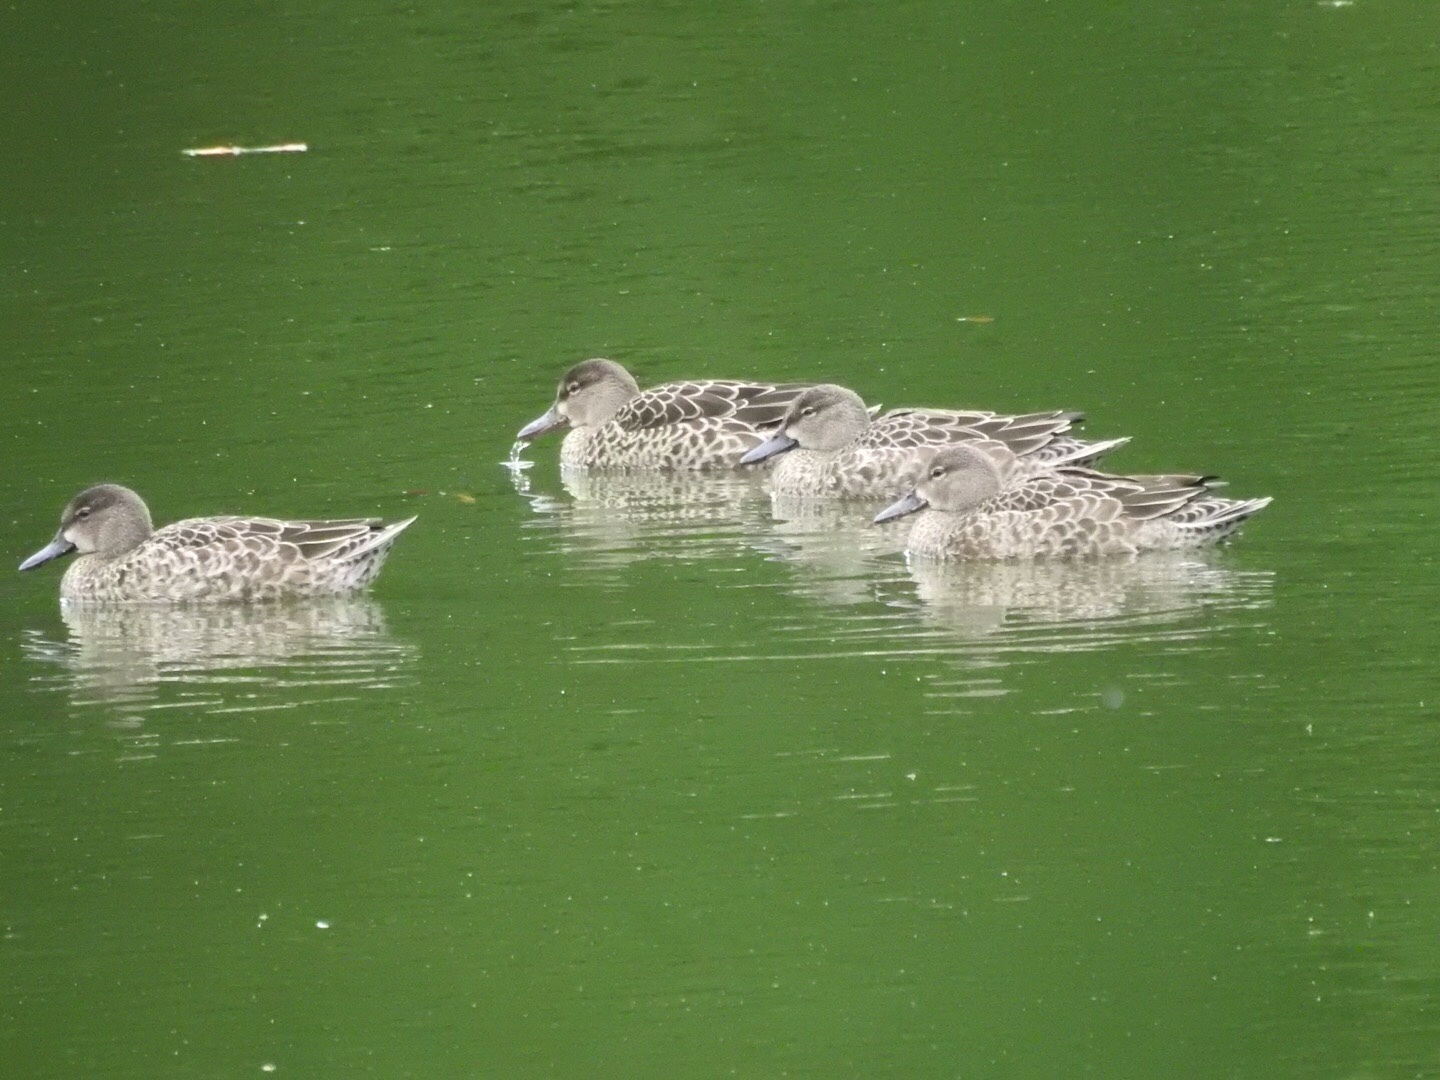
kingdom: Animalia
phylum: Chordata
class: Aves
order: Anseriformes
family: Anatidae
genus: Spatula
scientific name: Spatula discors
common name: Blue-winged teal
